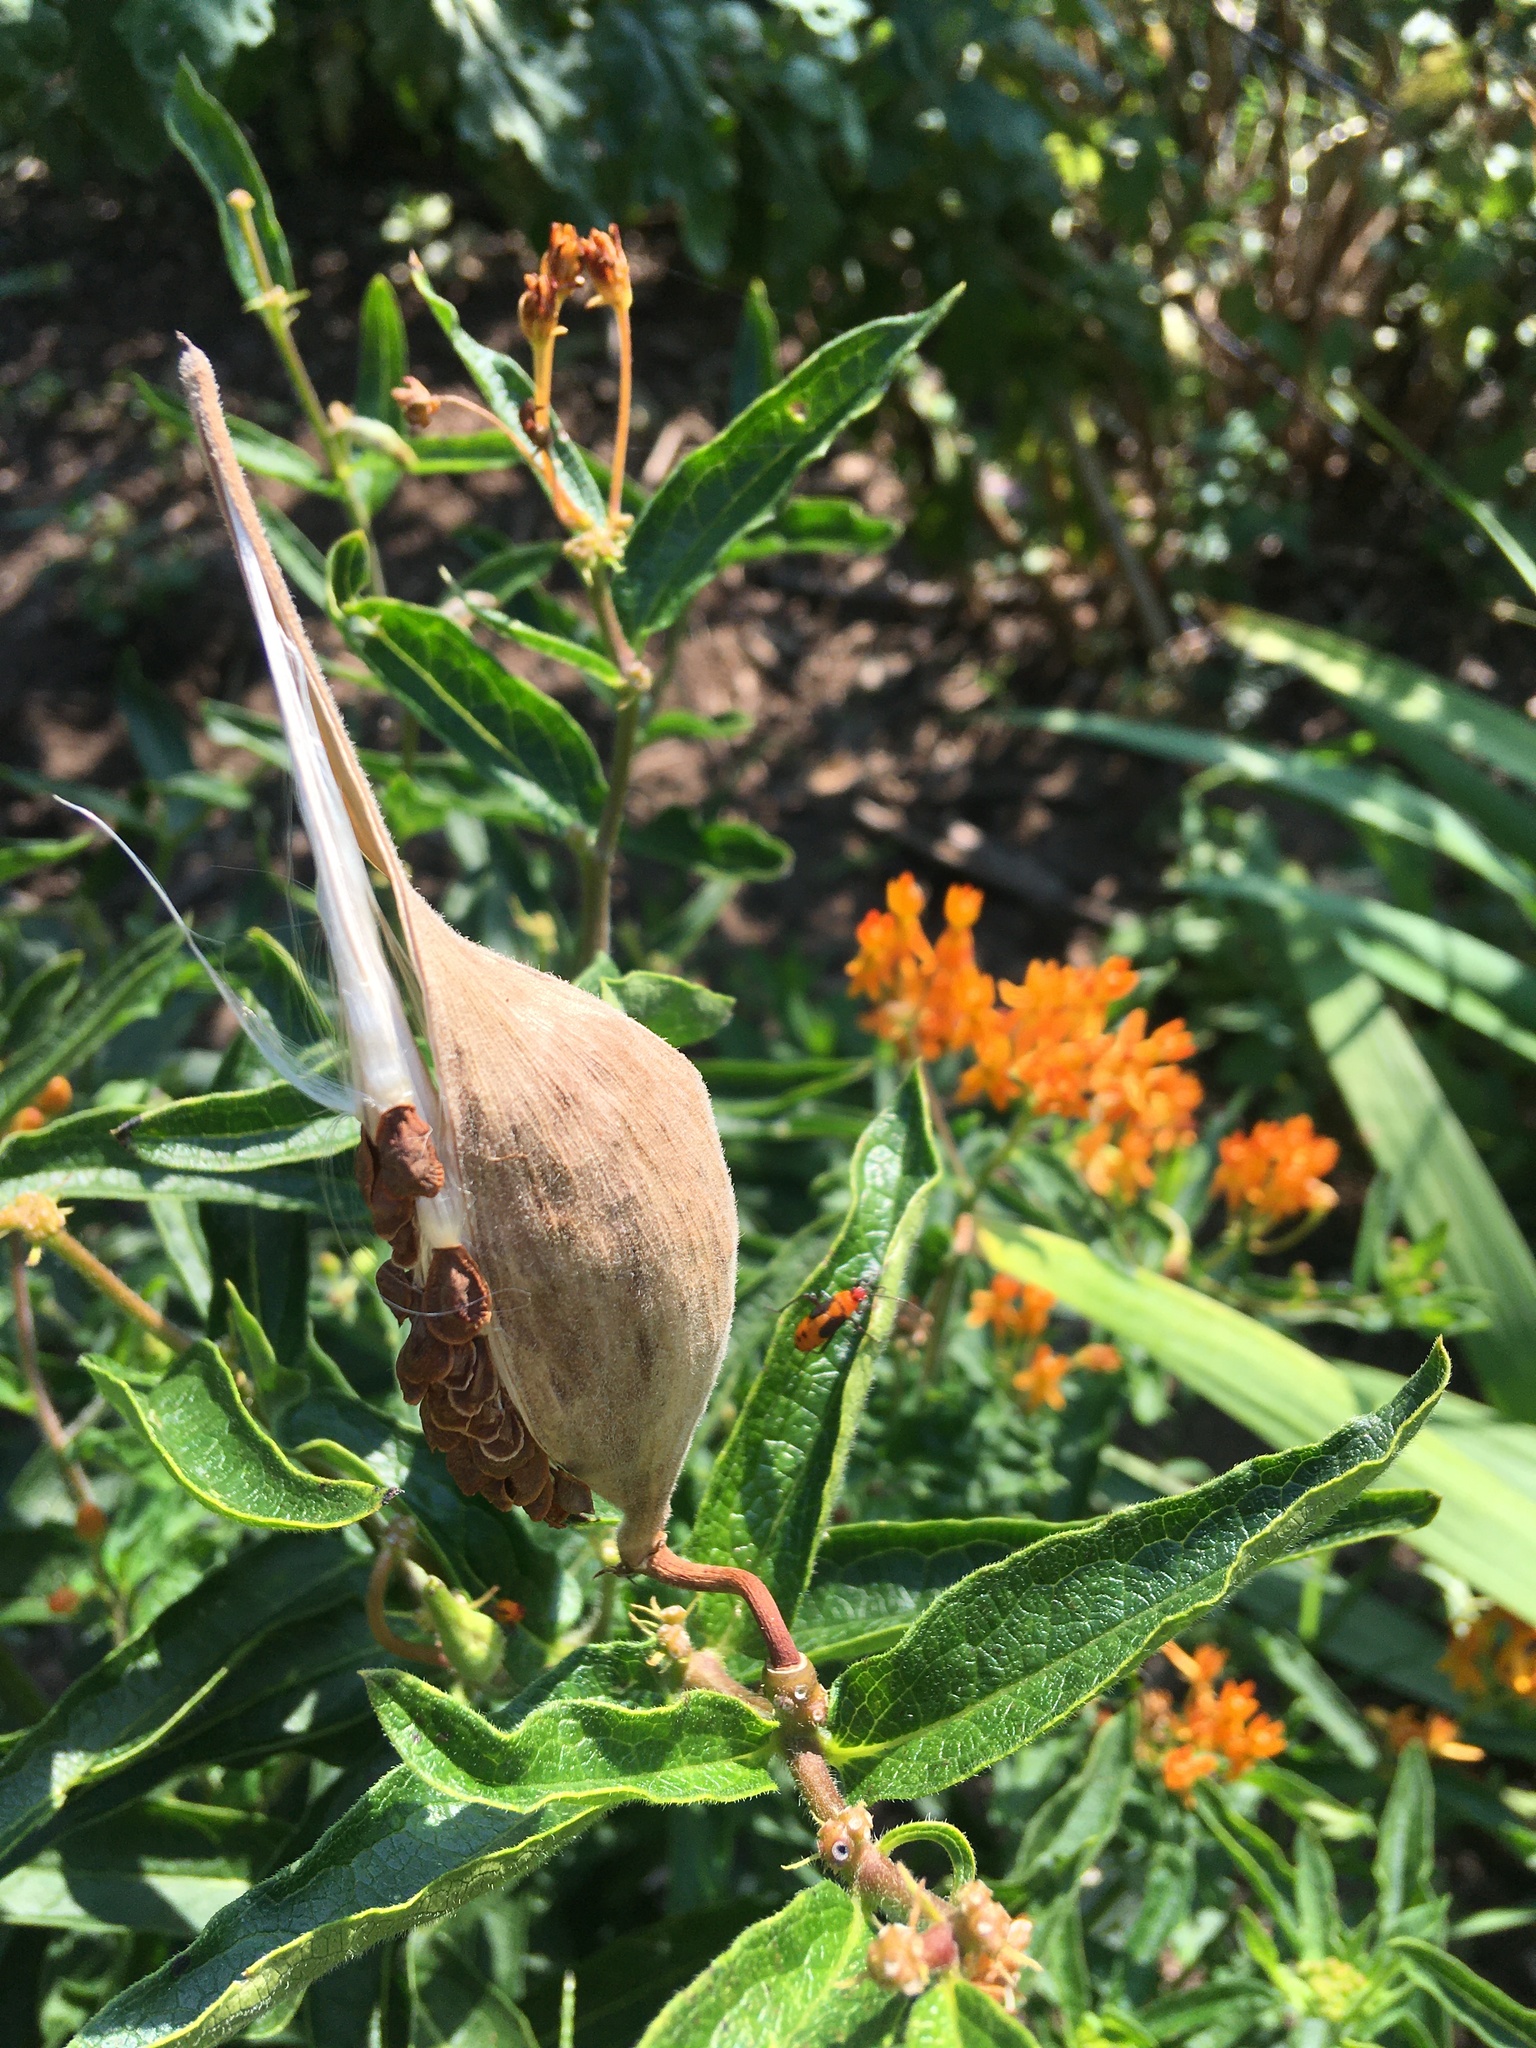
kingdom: Plantae
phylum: Tracheophyta
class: Magnoliopsida
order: Gentianales
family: Apocynaceae
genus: Asclepias
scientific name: Asclepias tuberosa
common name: Butterfly milkweed
